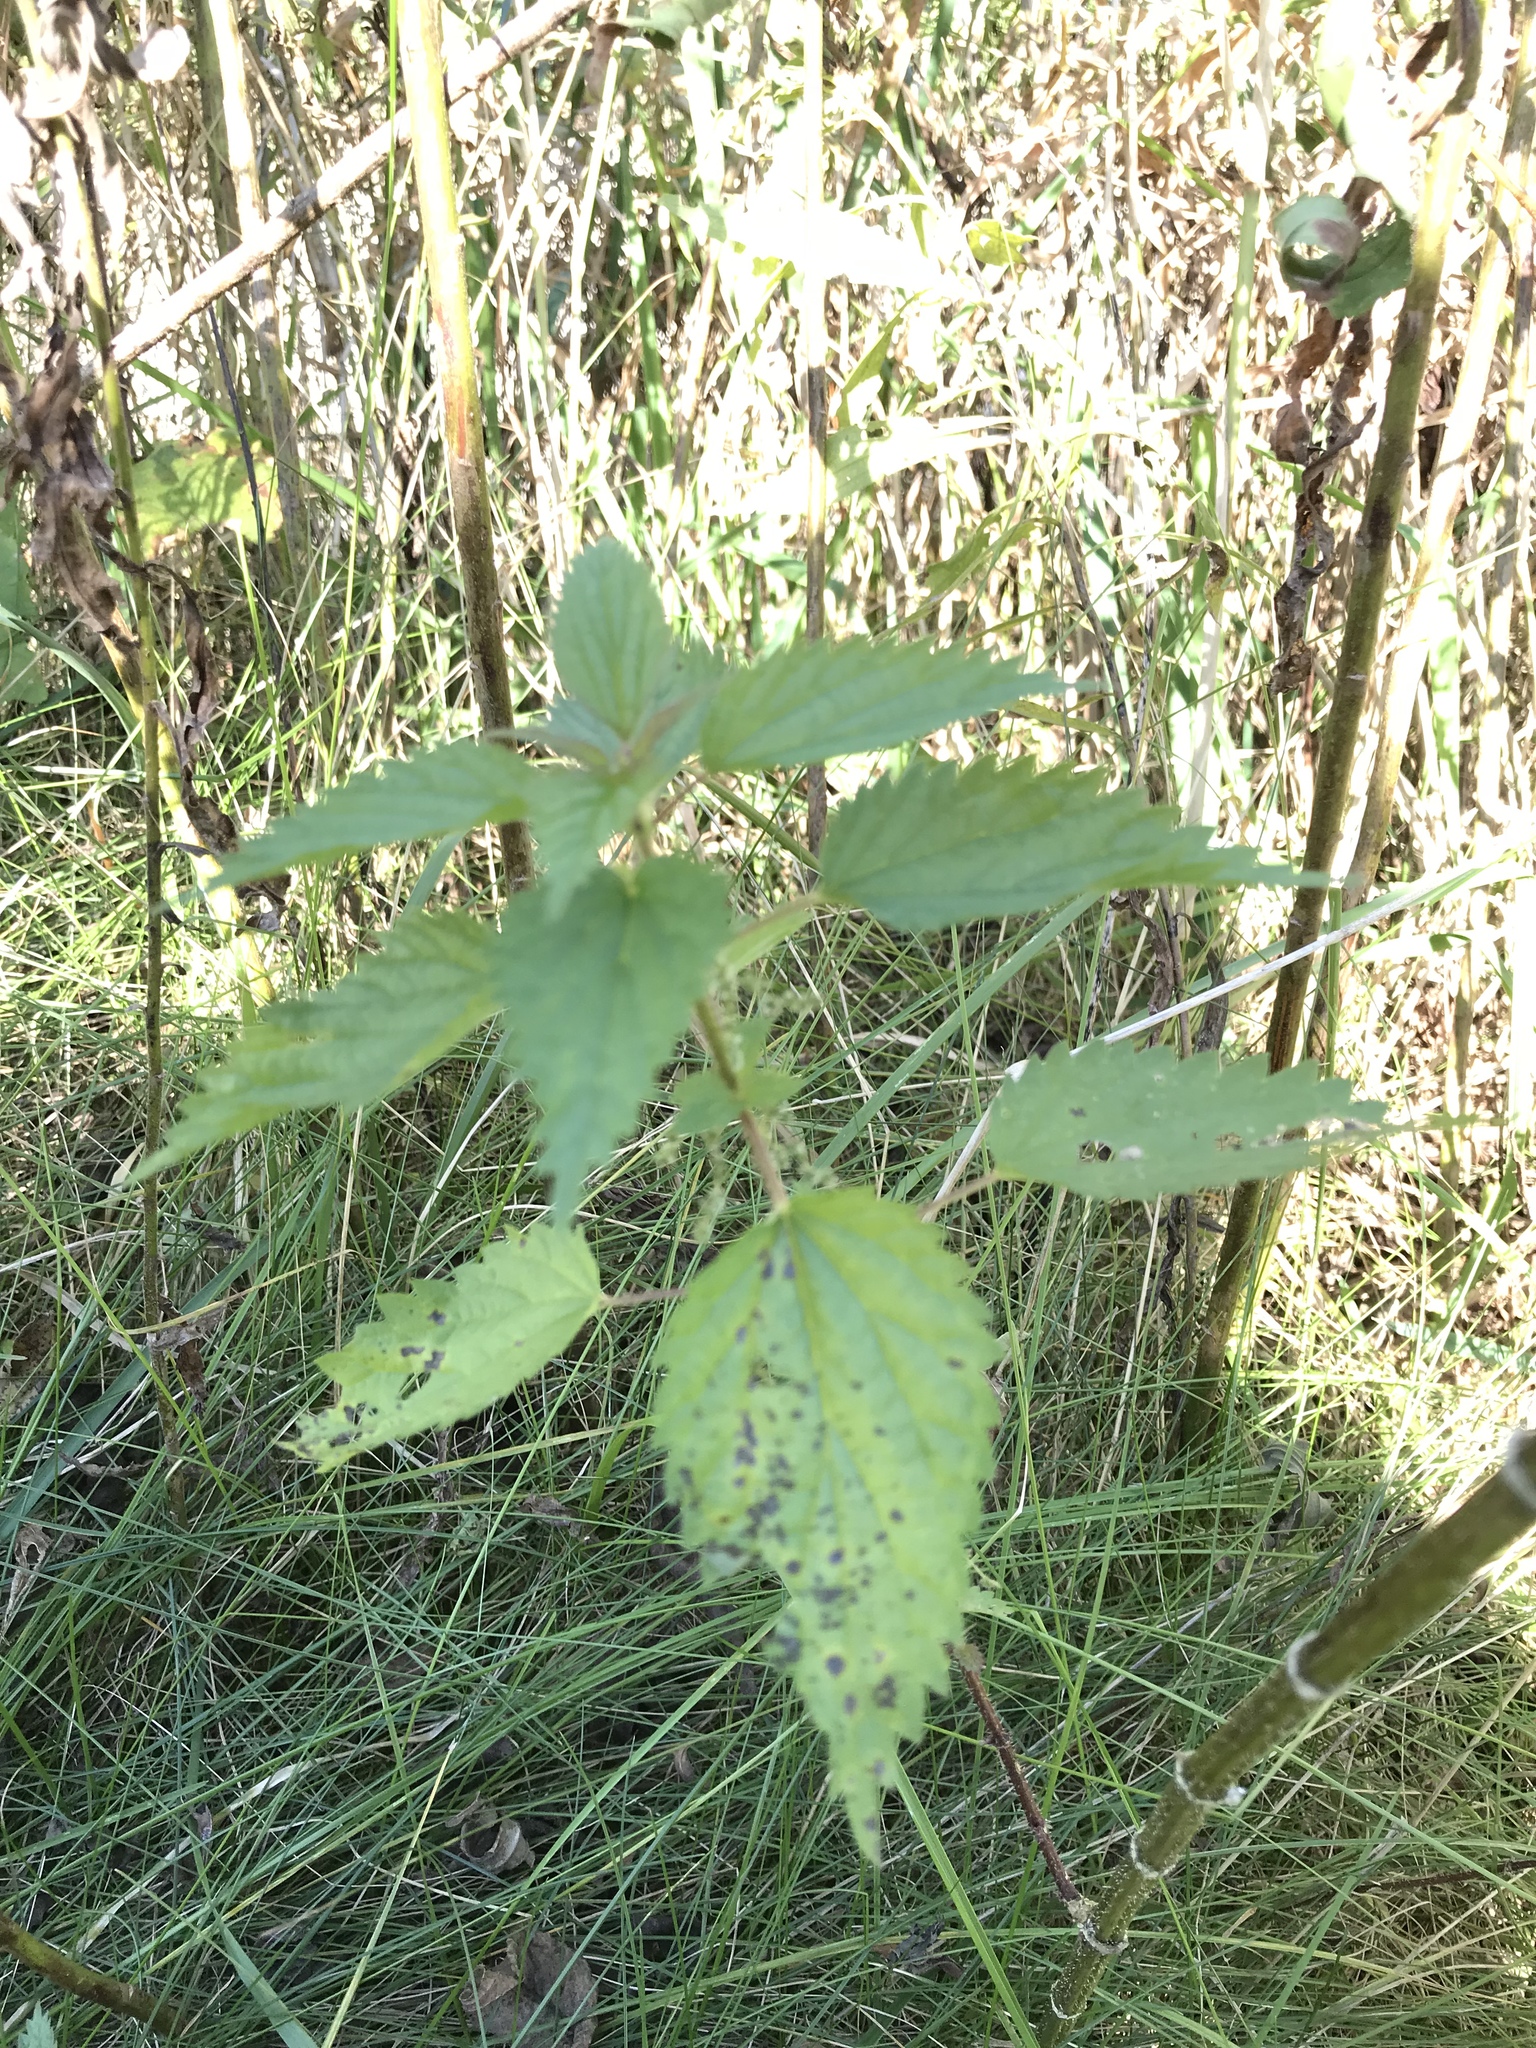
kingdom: Plantae
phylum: Tracheophyta
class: Magnoliopsida
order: Rosales
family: Urticaceae
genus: Urtica
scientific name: Urtica dioica
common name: Common nettle
